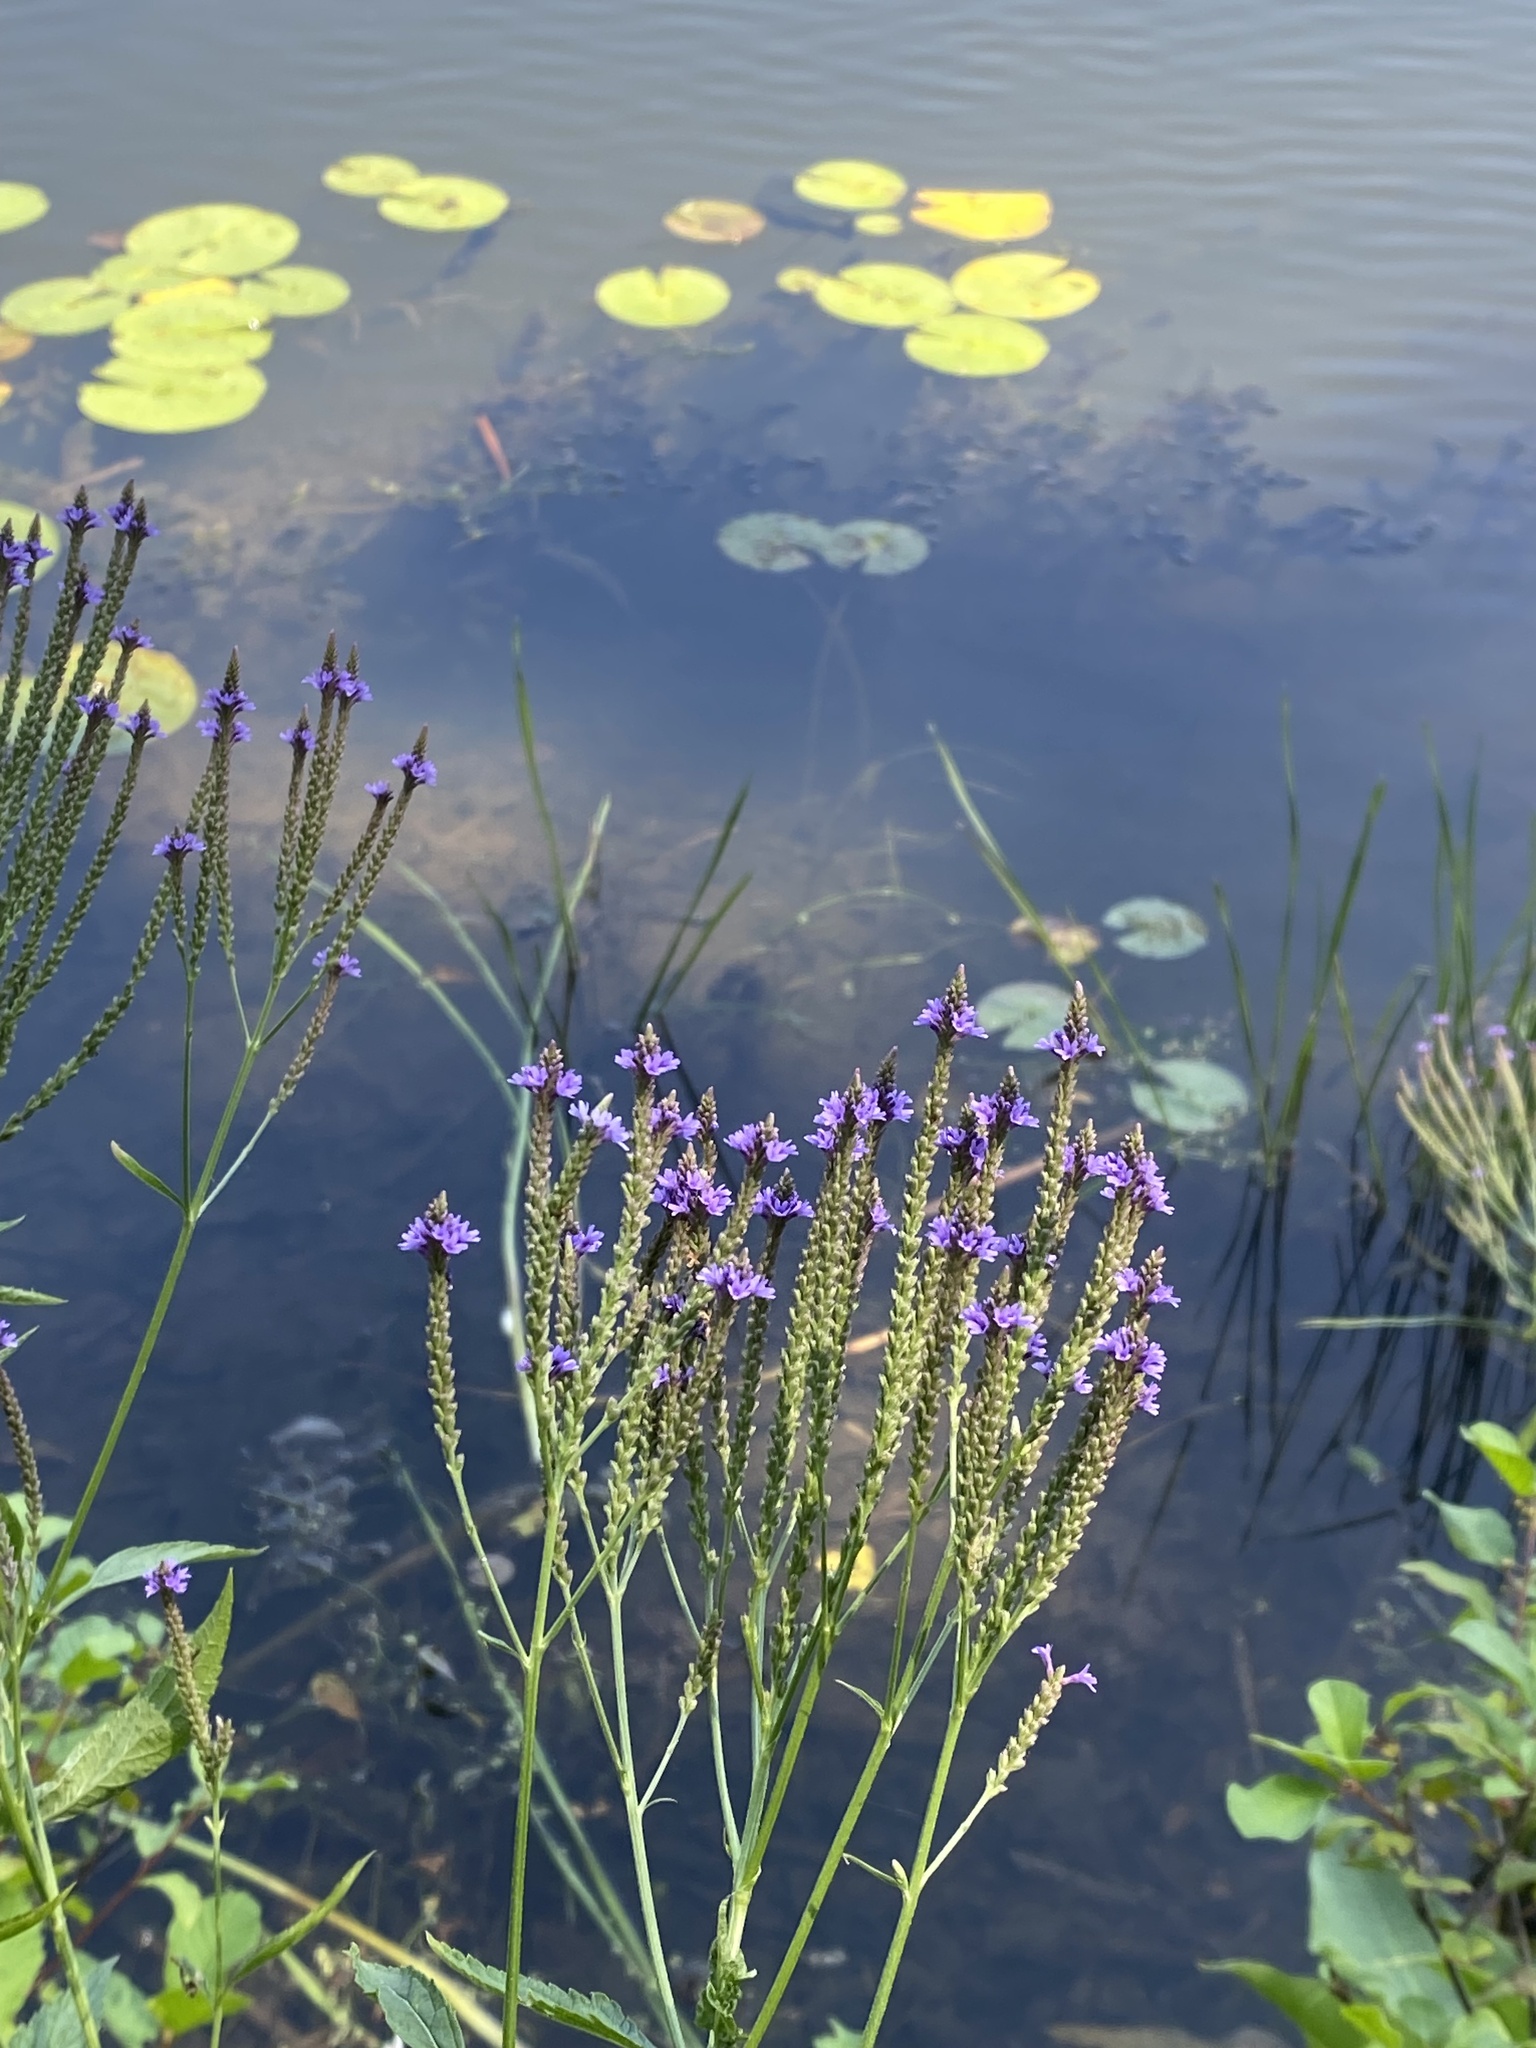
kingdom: Plantae
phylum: Tracheophyta
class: Magnoliopsida
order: Lamiales
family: Verbenaceae
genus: Verbena
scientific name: Verbena hastata
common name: American blue vervain
